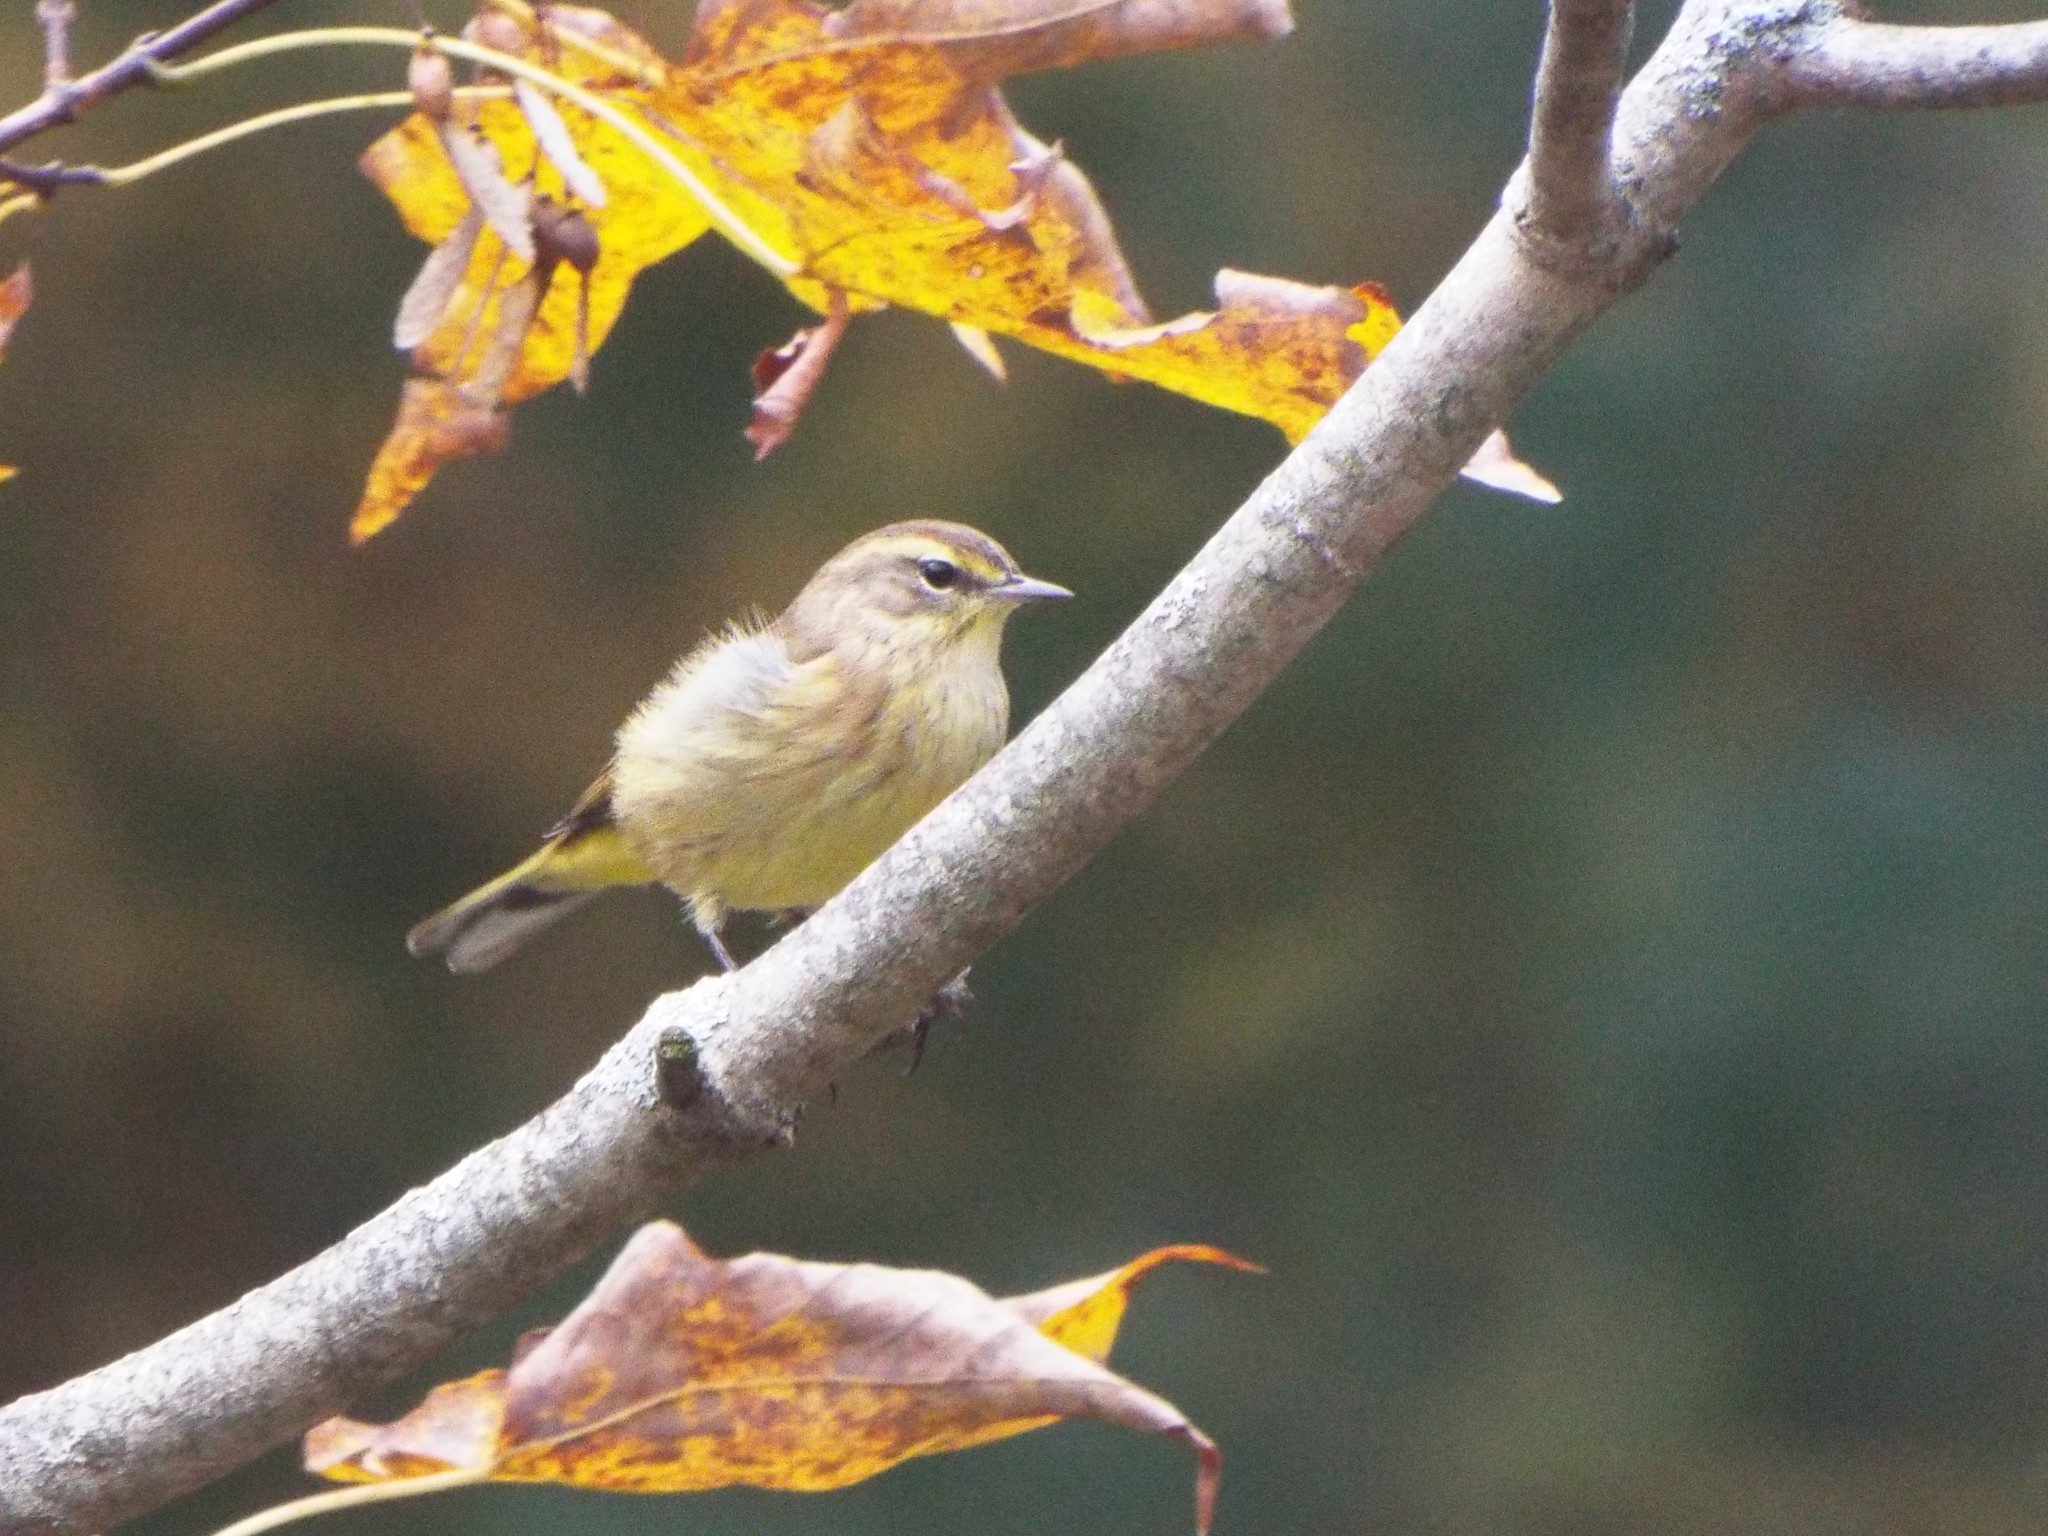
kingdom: Animalia
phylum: Chordata
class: Aves
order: Passeriformes
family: Parulidae
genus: Setophaga
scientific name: Setophaga palmarum
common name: Palm warbler
